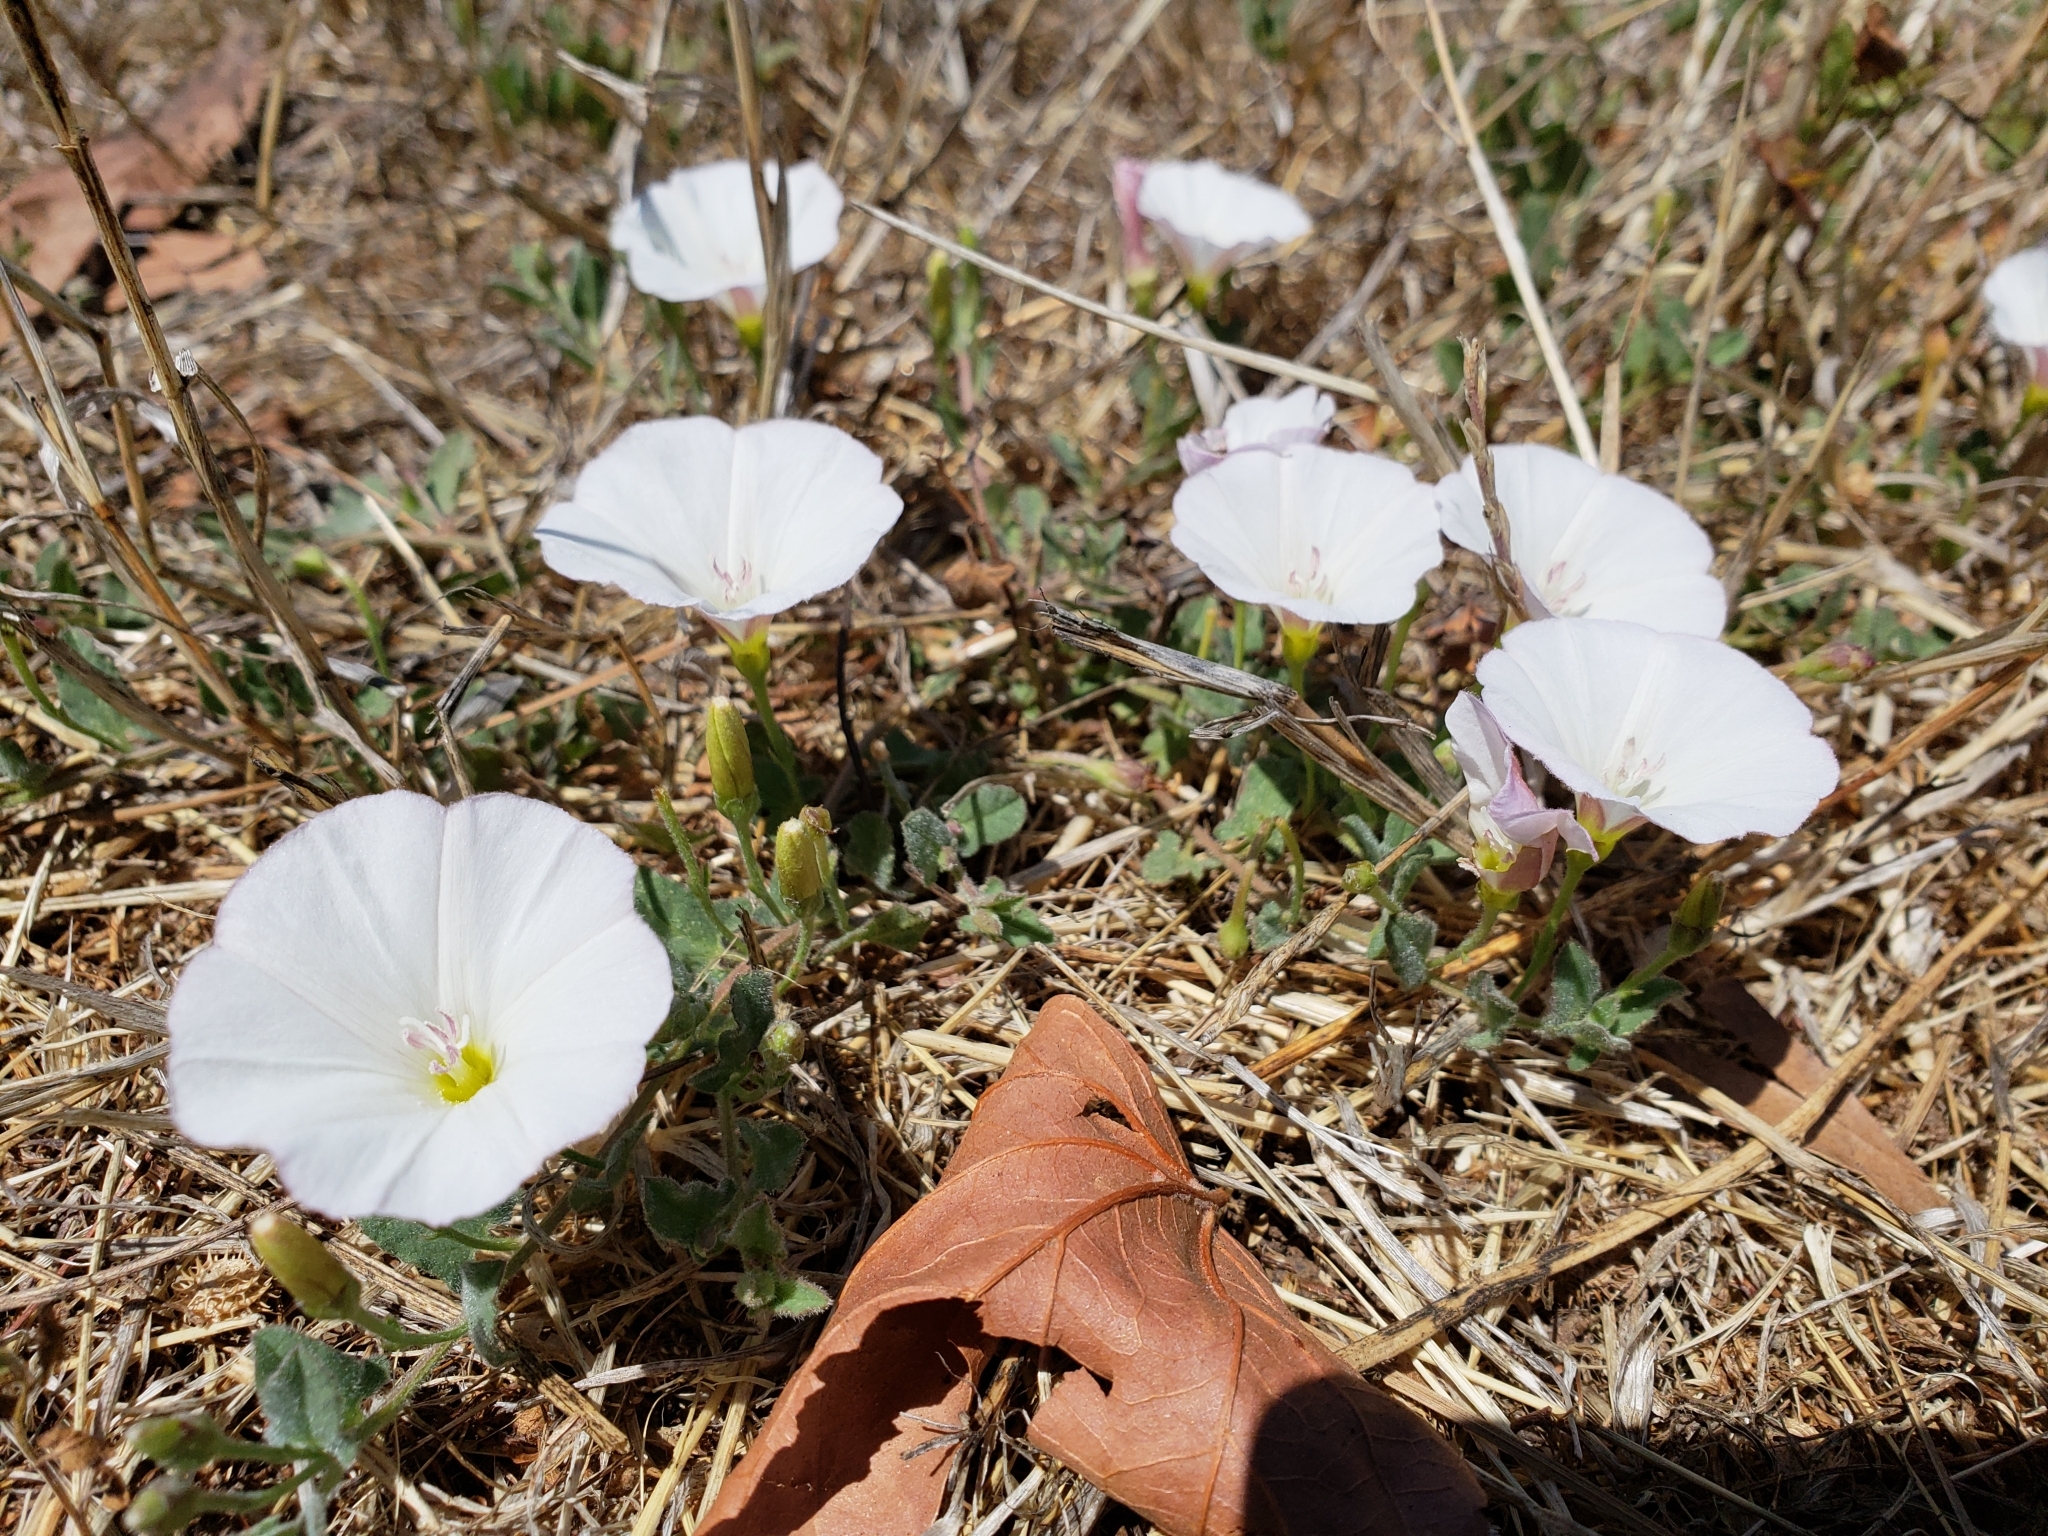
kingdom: Plantae
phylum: Tracheophyta
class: Magnoliopsida
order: Solanales
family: Convolvulaceae
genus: Convolvulus
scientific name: Convolvulus arvensis
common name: Field bindweed
